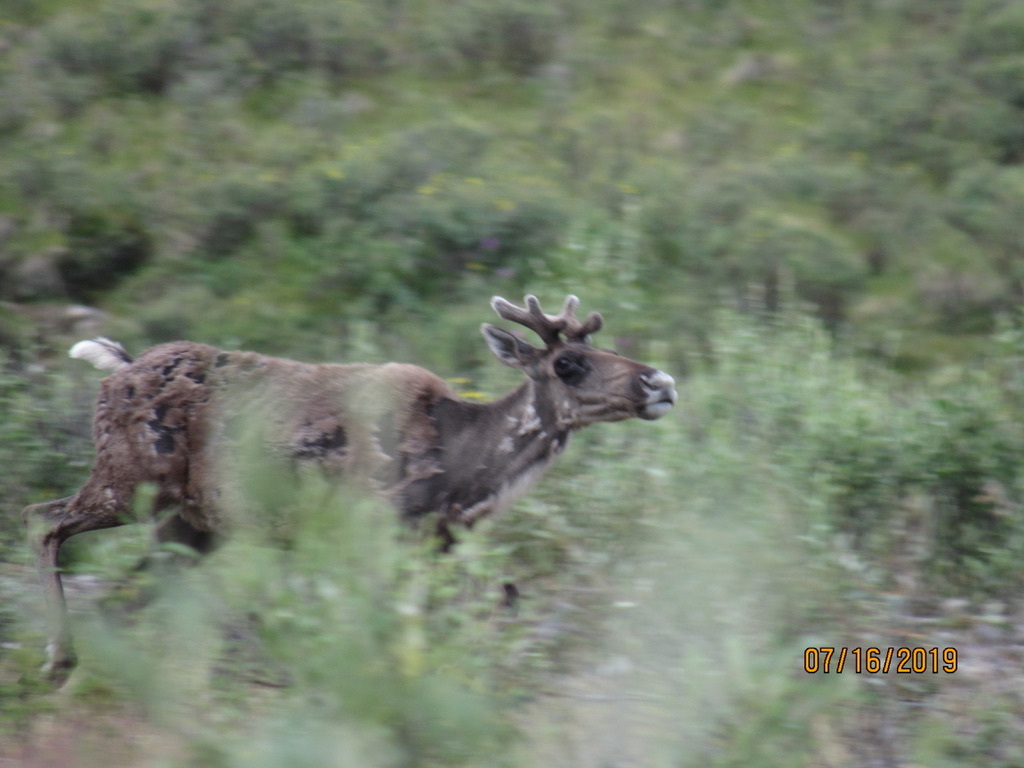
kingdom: Animalia
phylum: Chordata
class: Mammalia
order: Artiodactyla
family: Cervidae
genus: Rangifer
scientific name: Rangifer tarandus
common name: Reindeer
